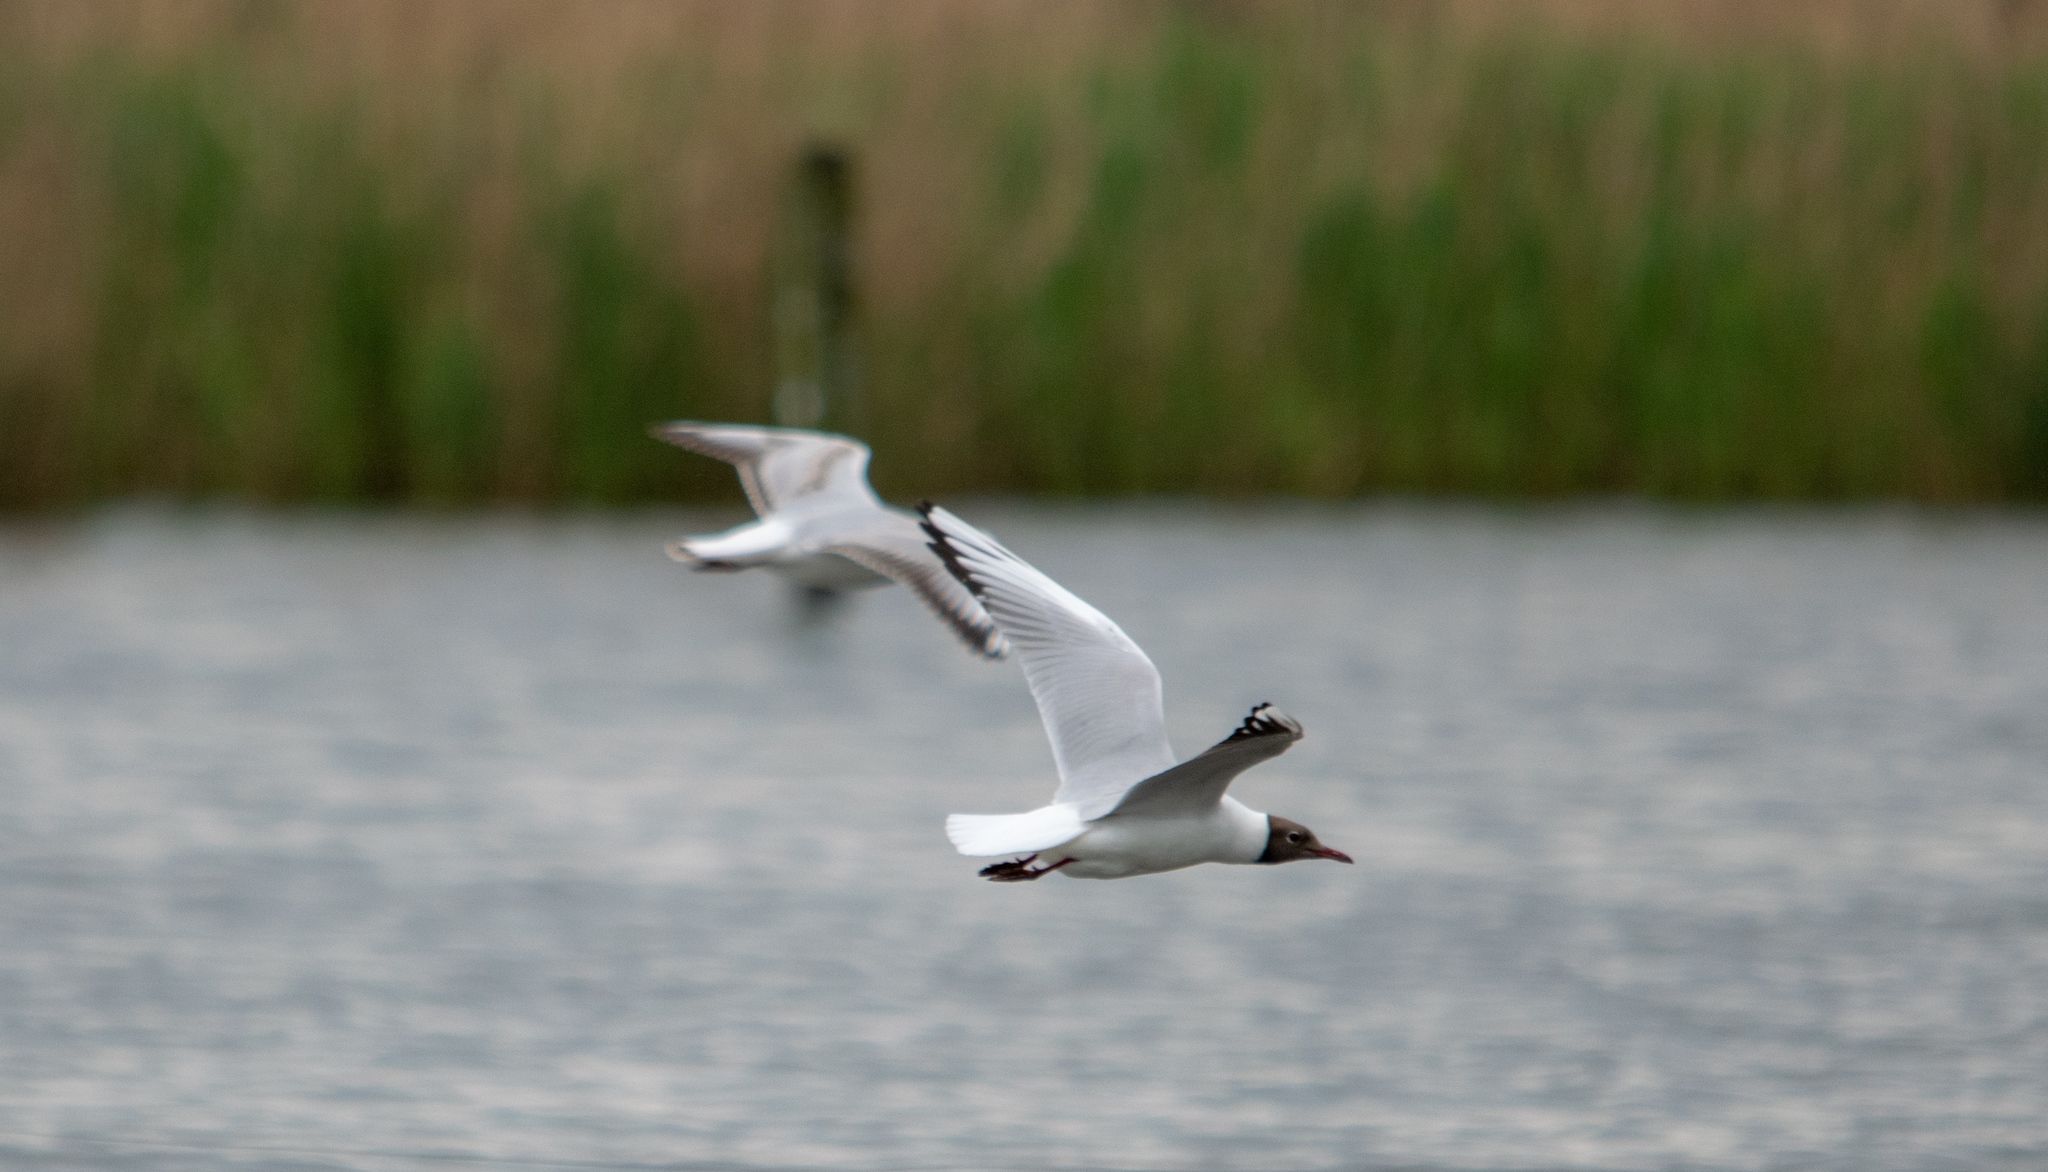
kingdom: Animalia
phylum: Chordata
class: Aves
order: Charadriiformes
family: Laridae
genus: Chroicocephalus
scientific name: Chroicocephalus ridibundus
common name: Black-headed gull
